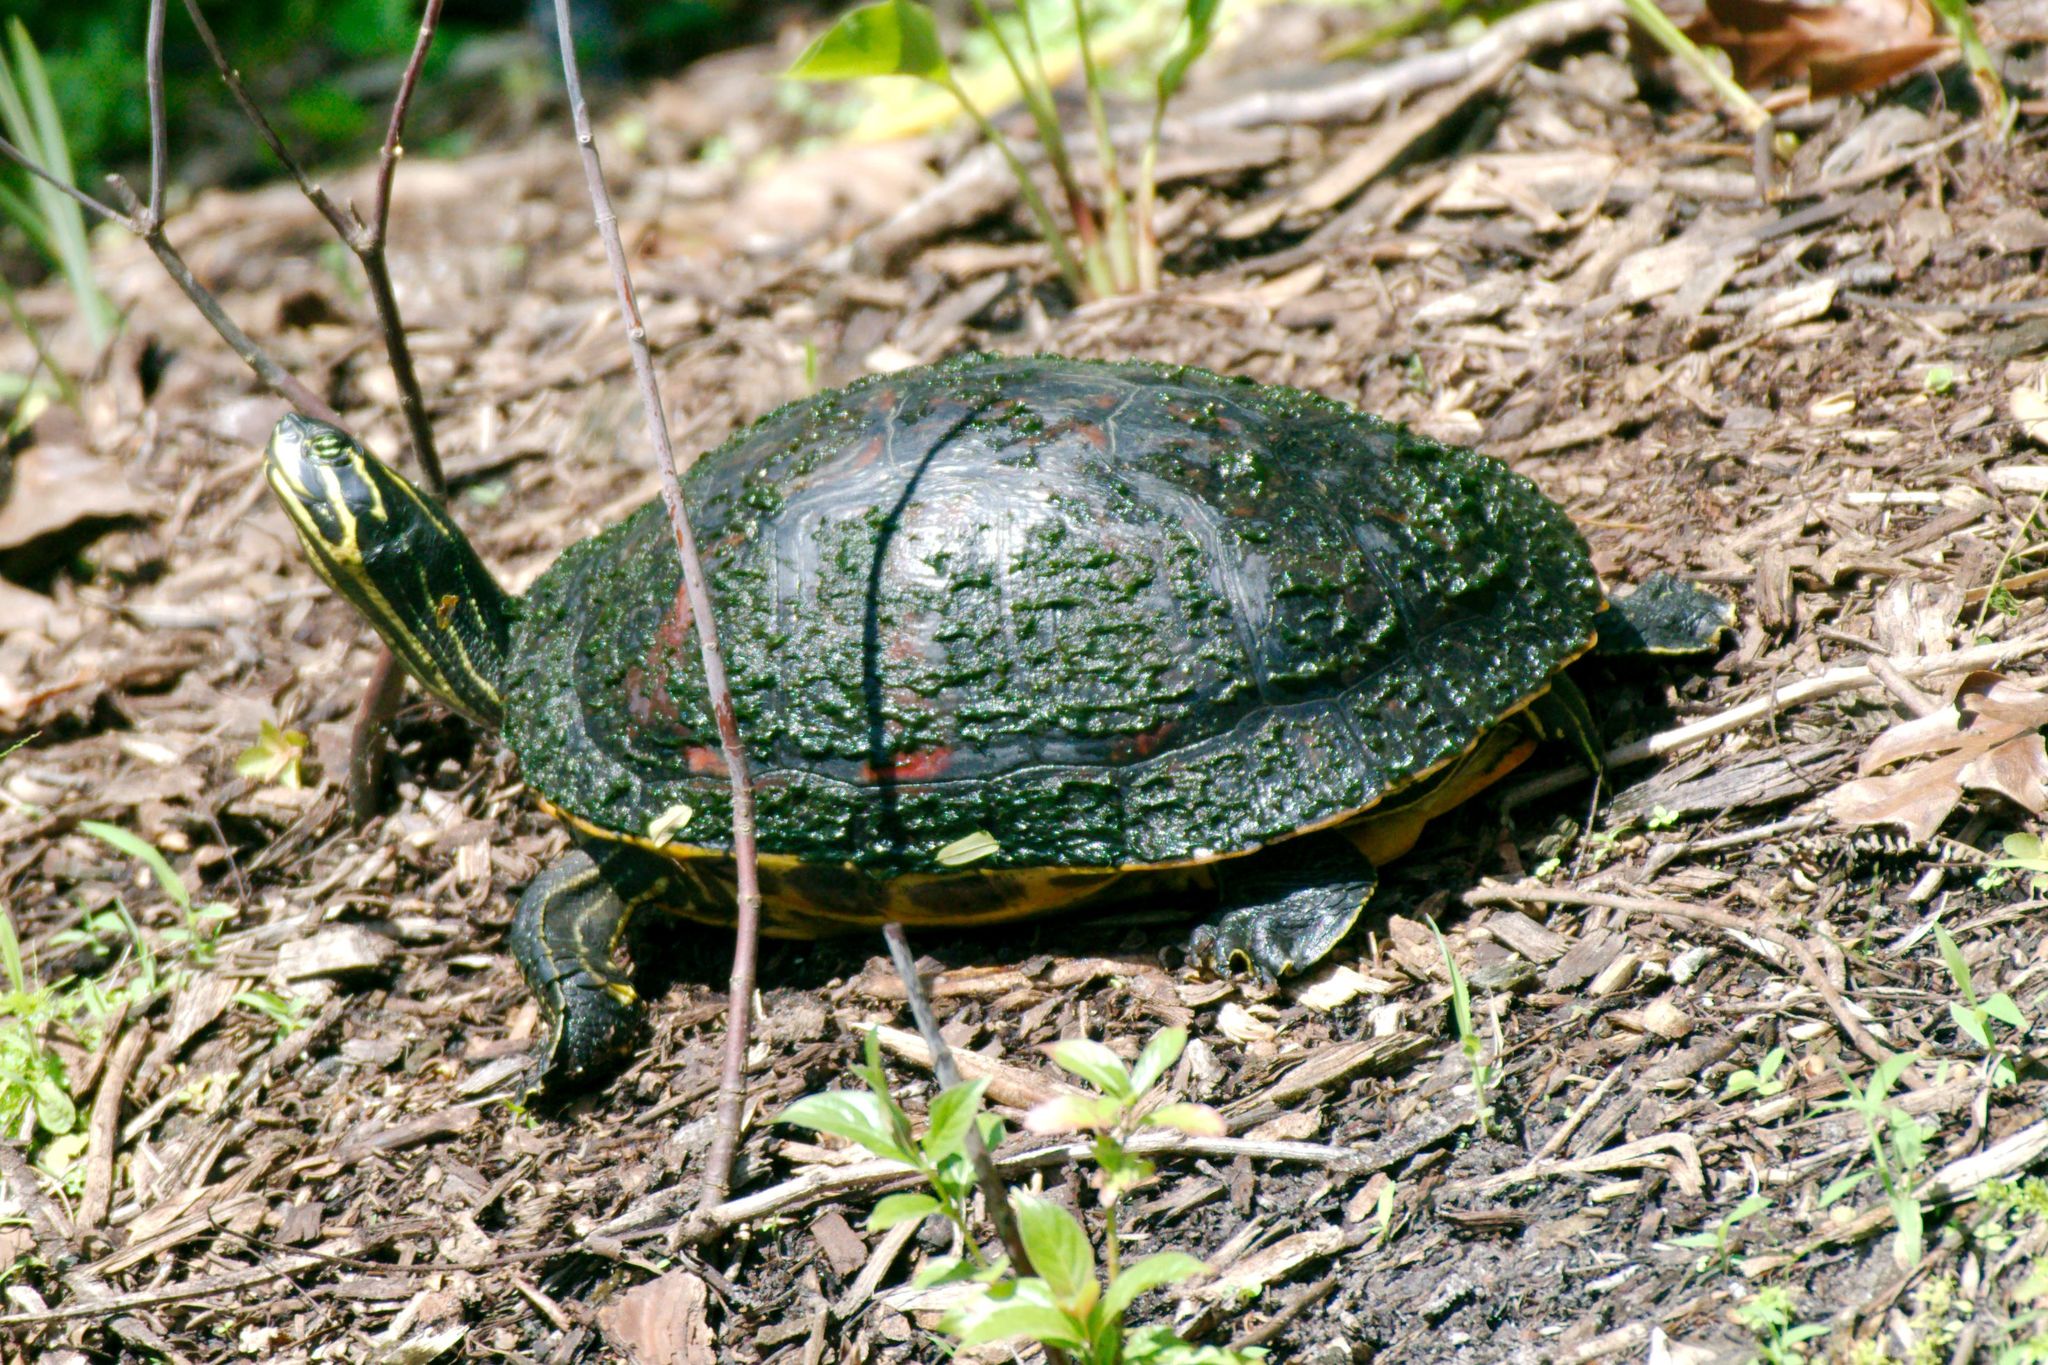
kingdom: Animalia
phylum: Chordata
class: Testudines
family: Emydidae
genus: Pseudemys
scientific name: Pseudemys nelsoni
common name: Florida red-bellied turtle
